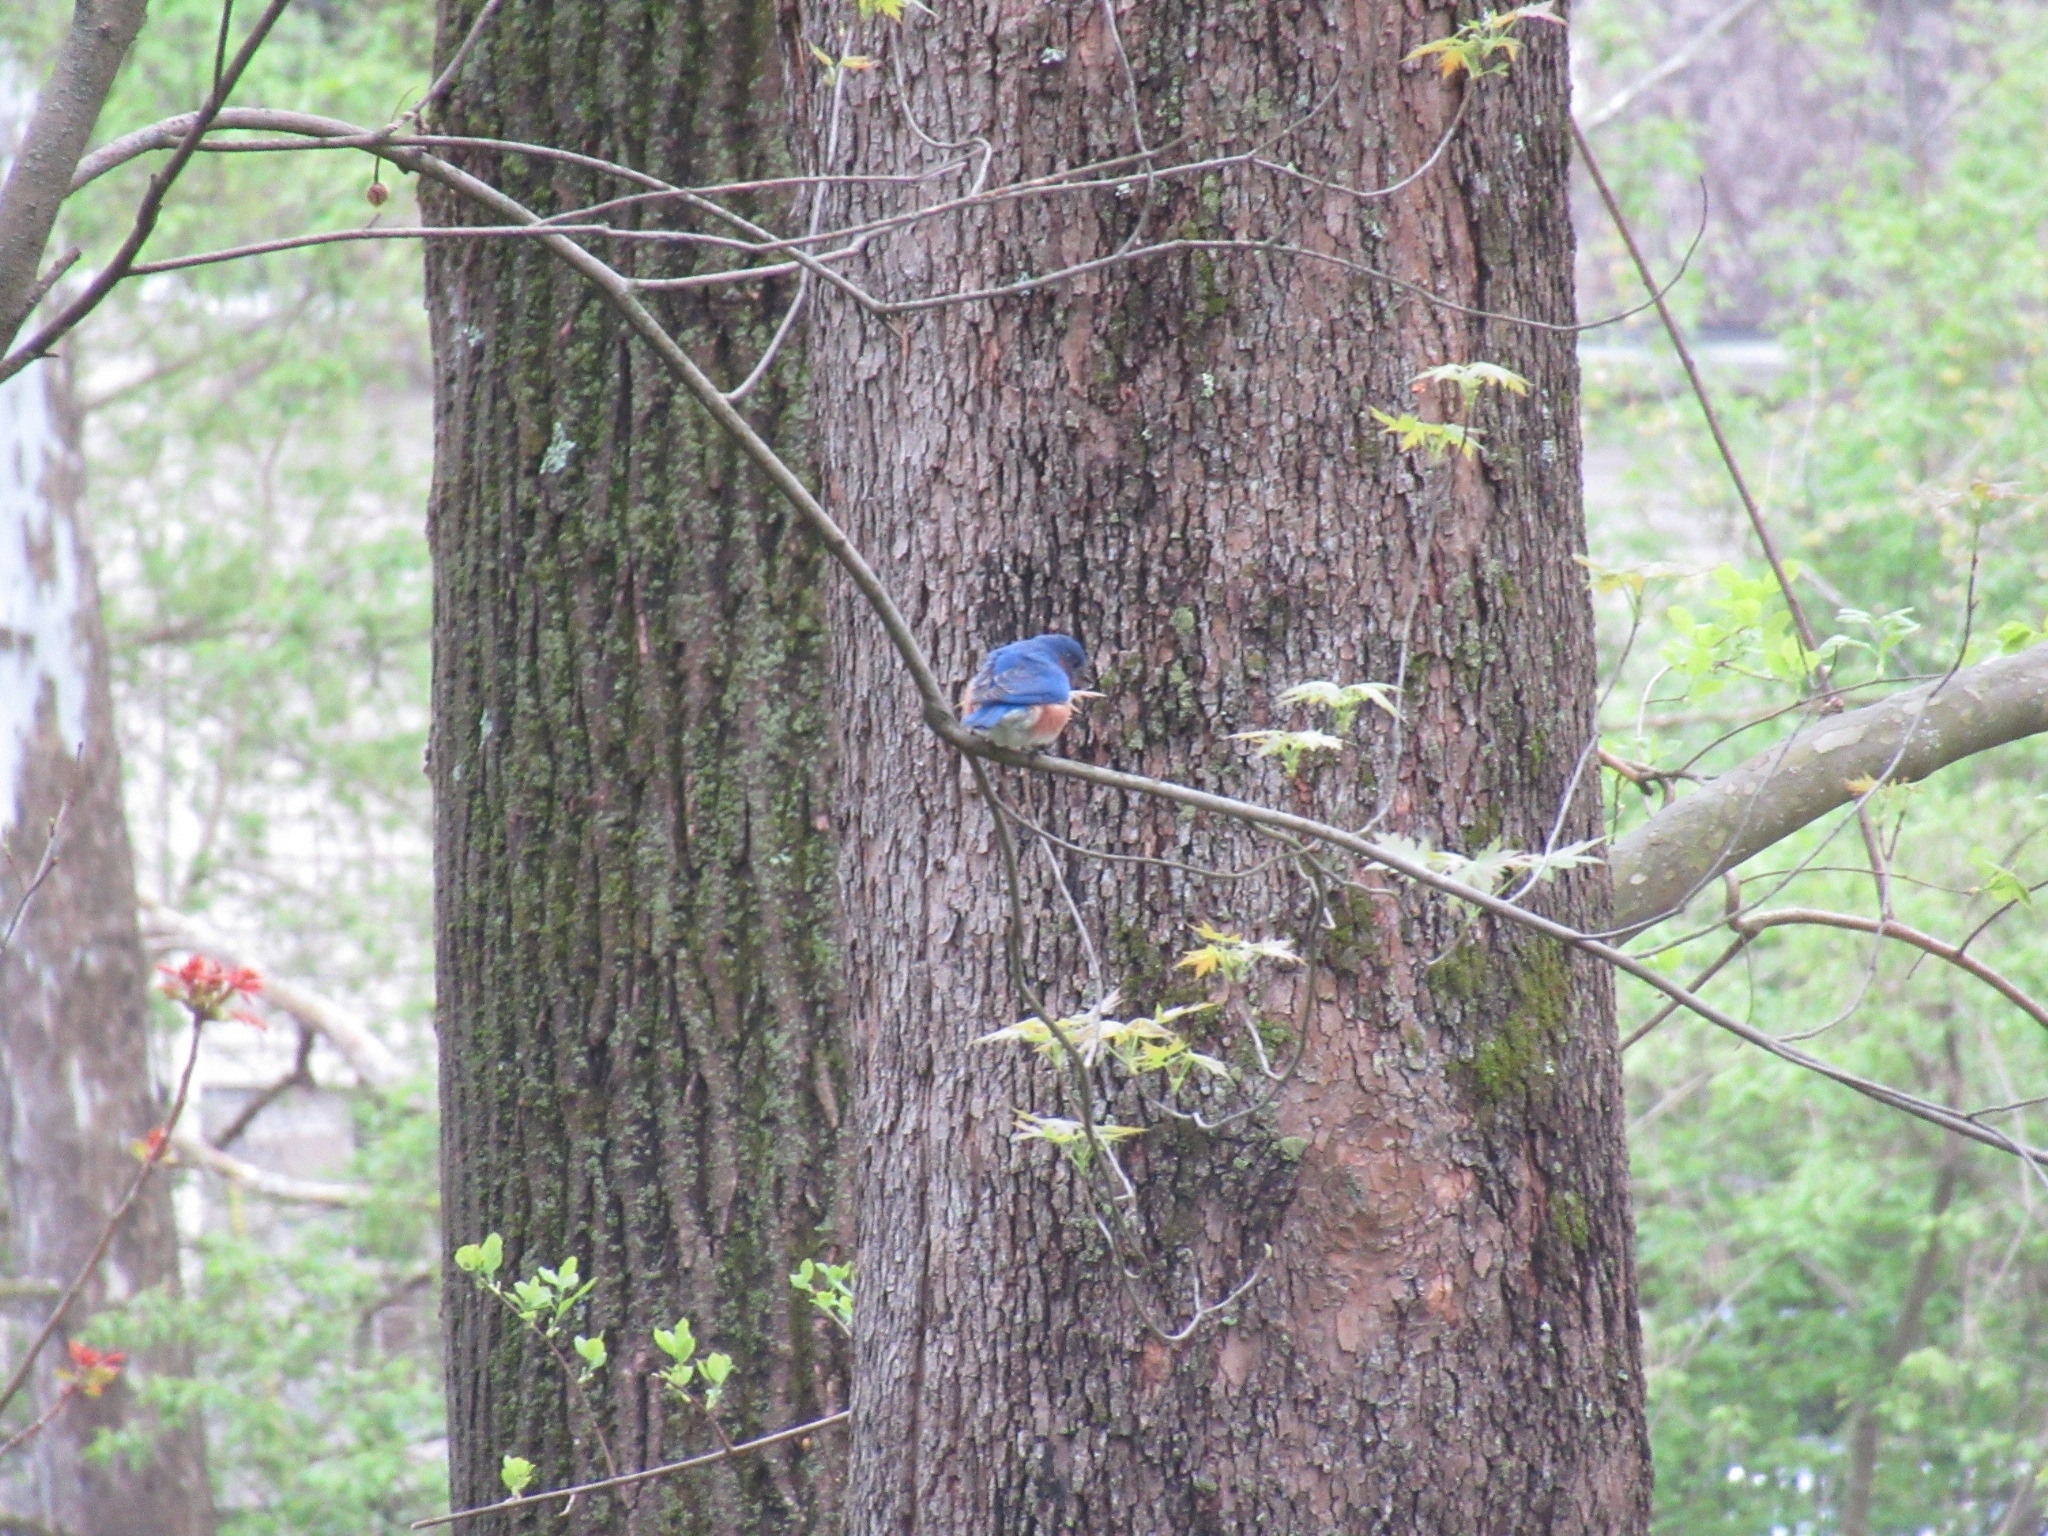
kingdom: Animalia
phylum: Chordata
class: Aves
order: Passeriformes
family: Turdidae
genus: Sialia
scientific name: Sialia sialis
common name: Eastern bluebird
